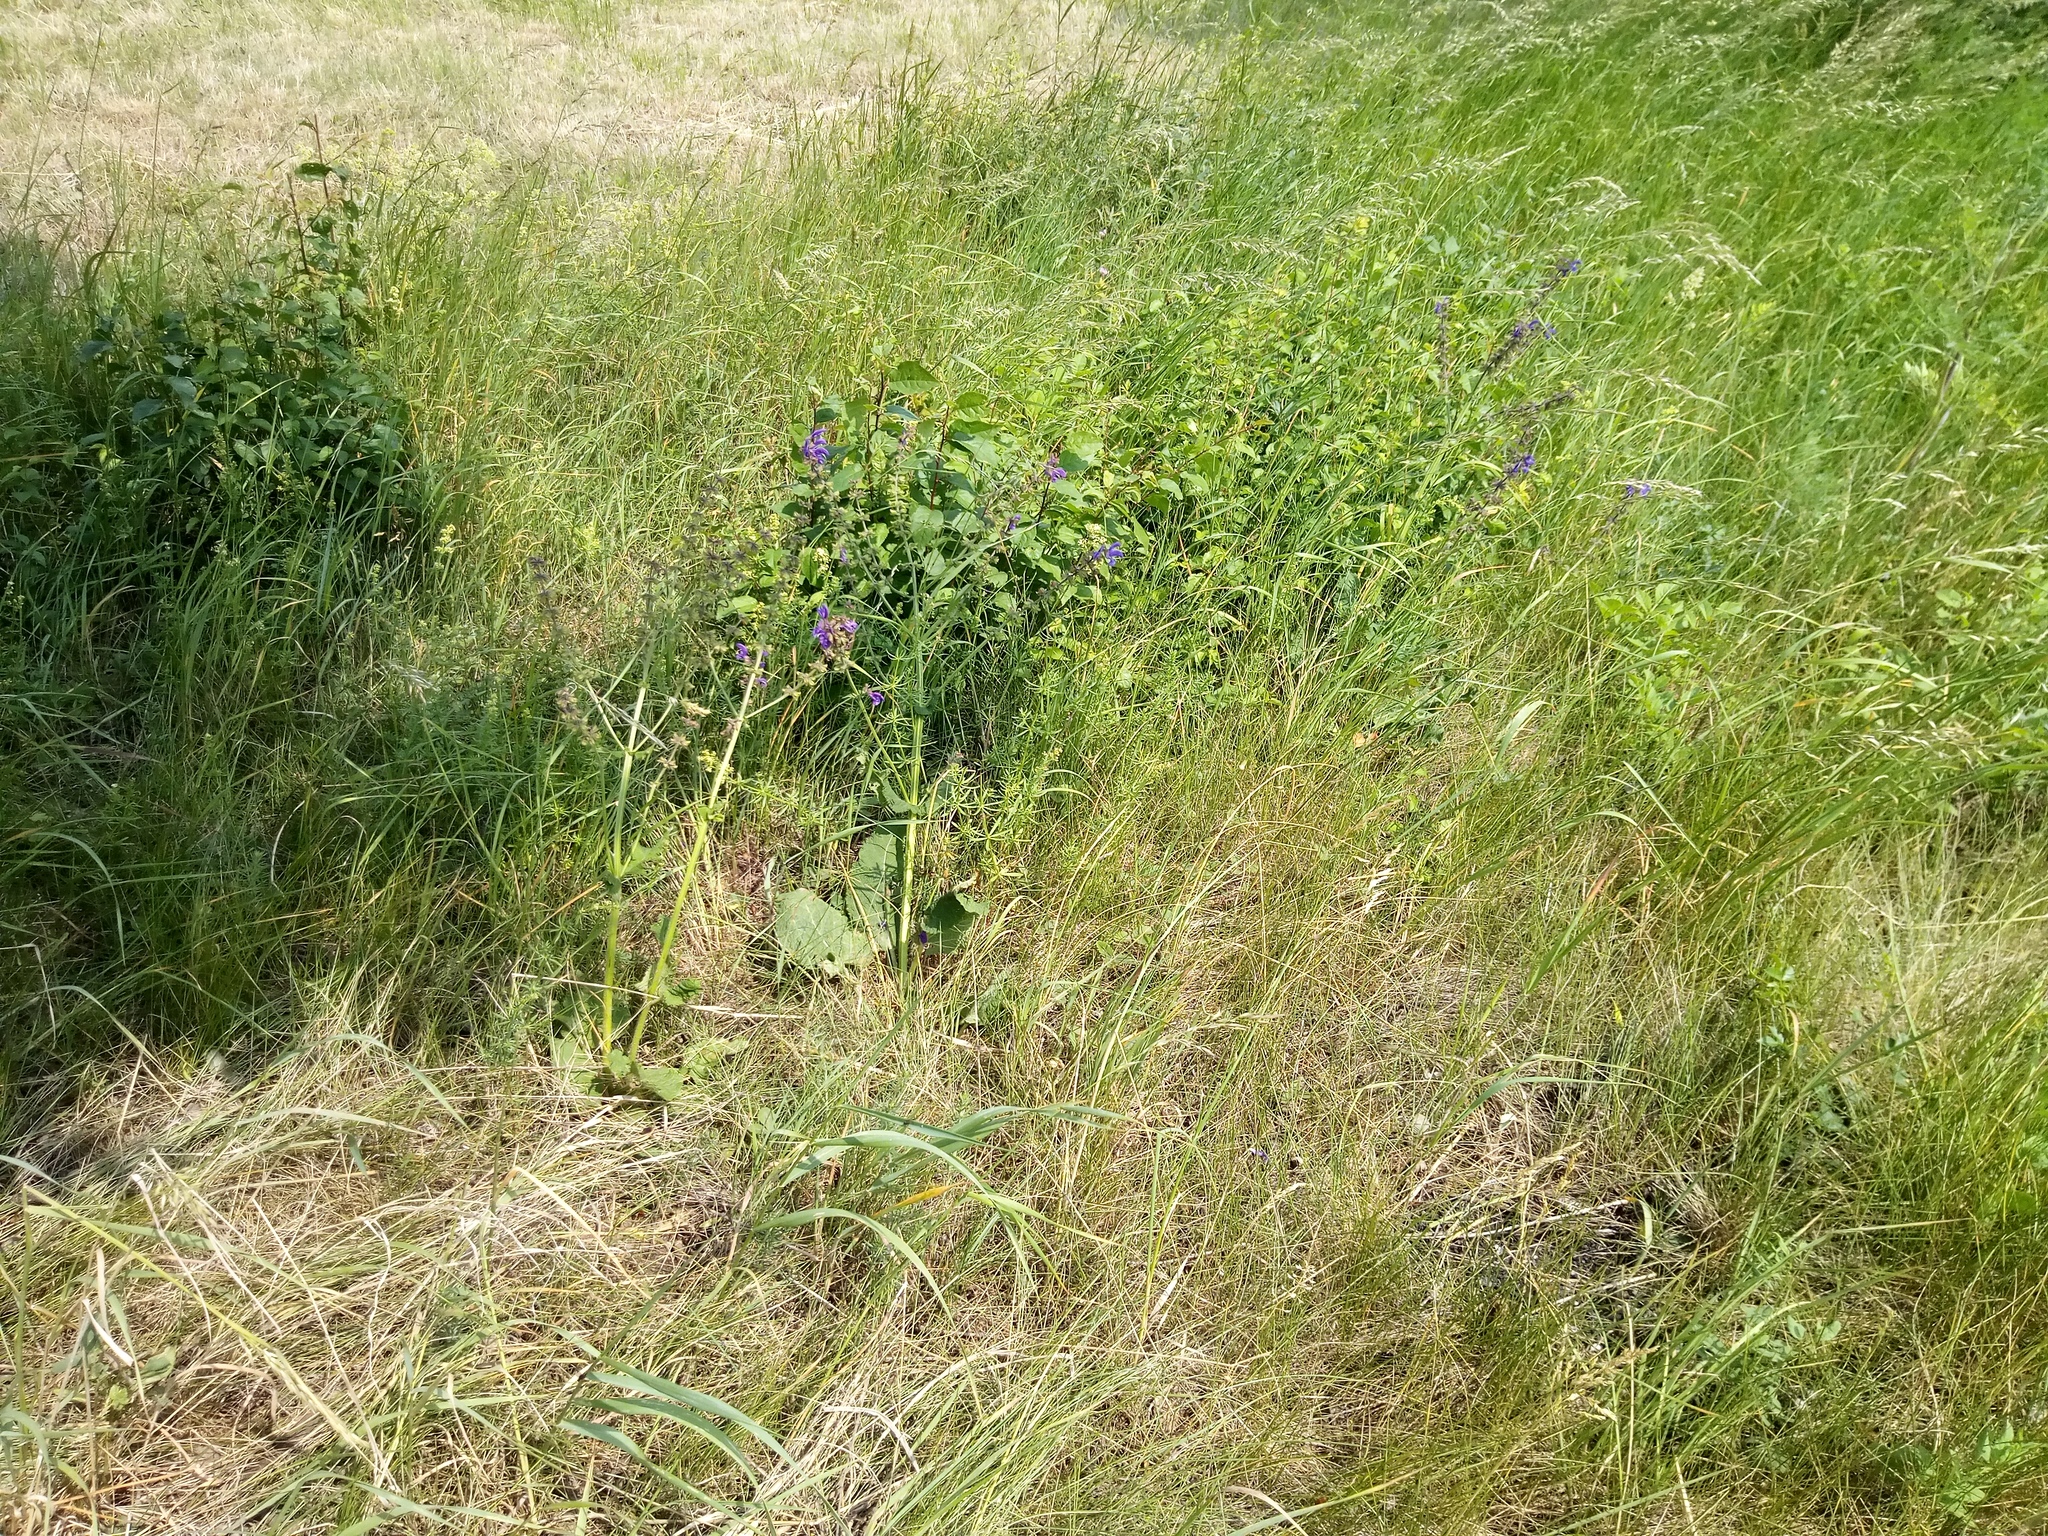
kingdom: Plantae
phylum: Tracheophyta
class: Magnoliopsida
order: Lamiales
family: Lamiaceae
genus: Salvia
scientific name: Salvia pratensis
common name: Meadow sage
